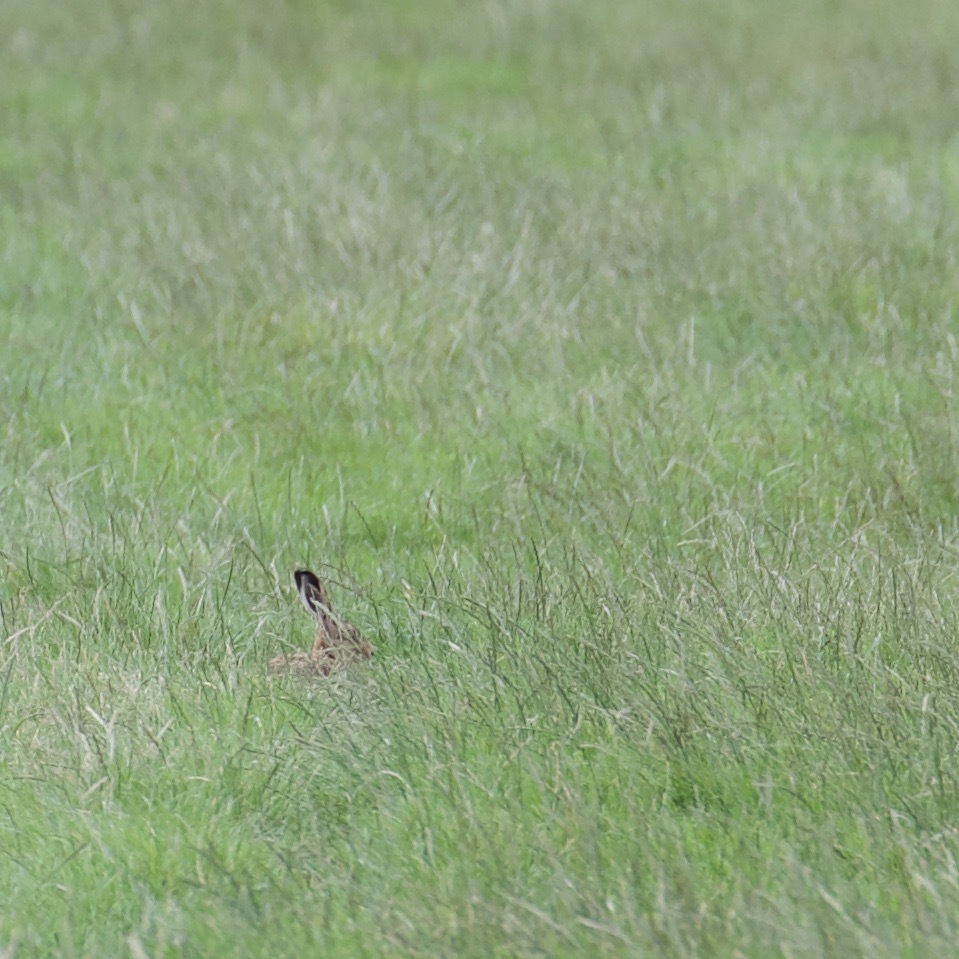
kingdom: Animalia
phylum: Chordata
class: Mammalia
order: Lagomorpha
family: Leporidae
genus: Lepus
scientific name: Lepus europaeus
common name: European hare
